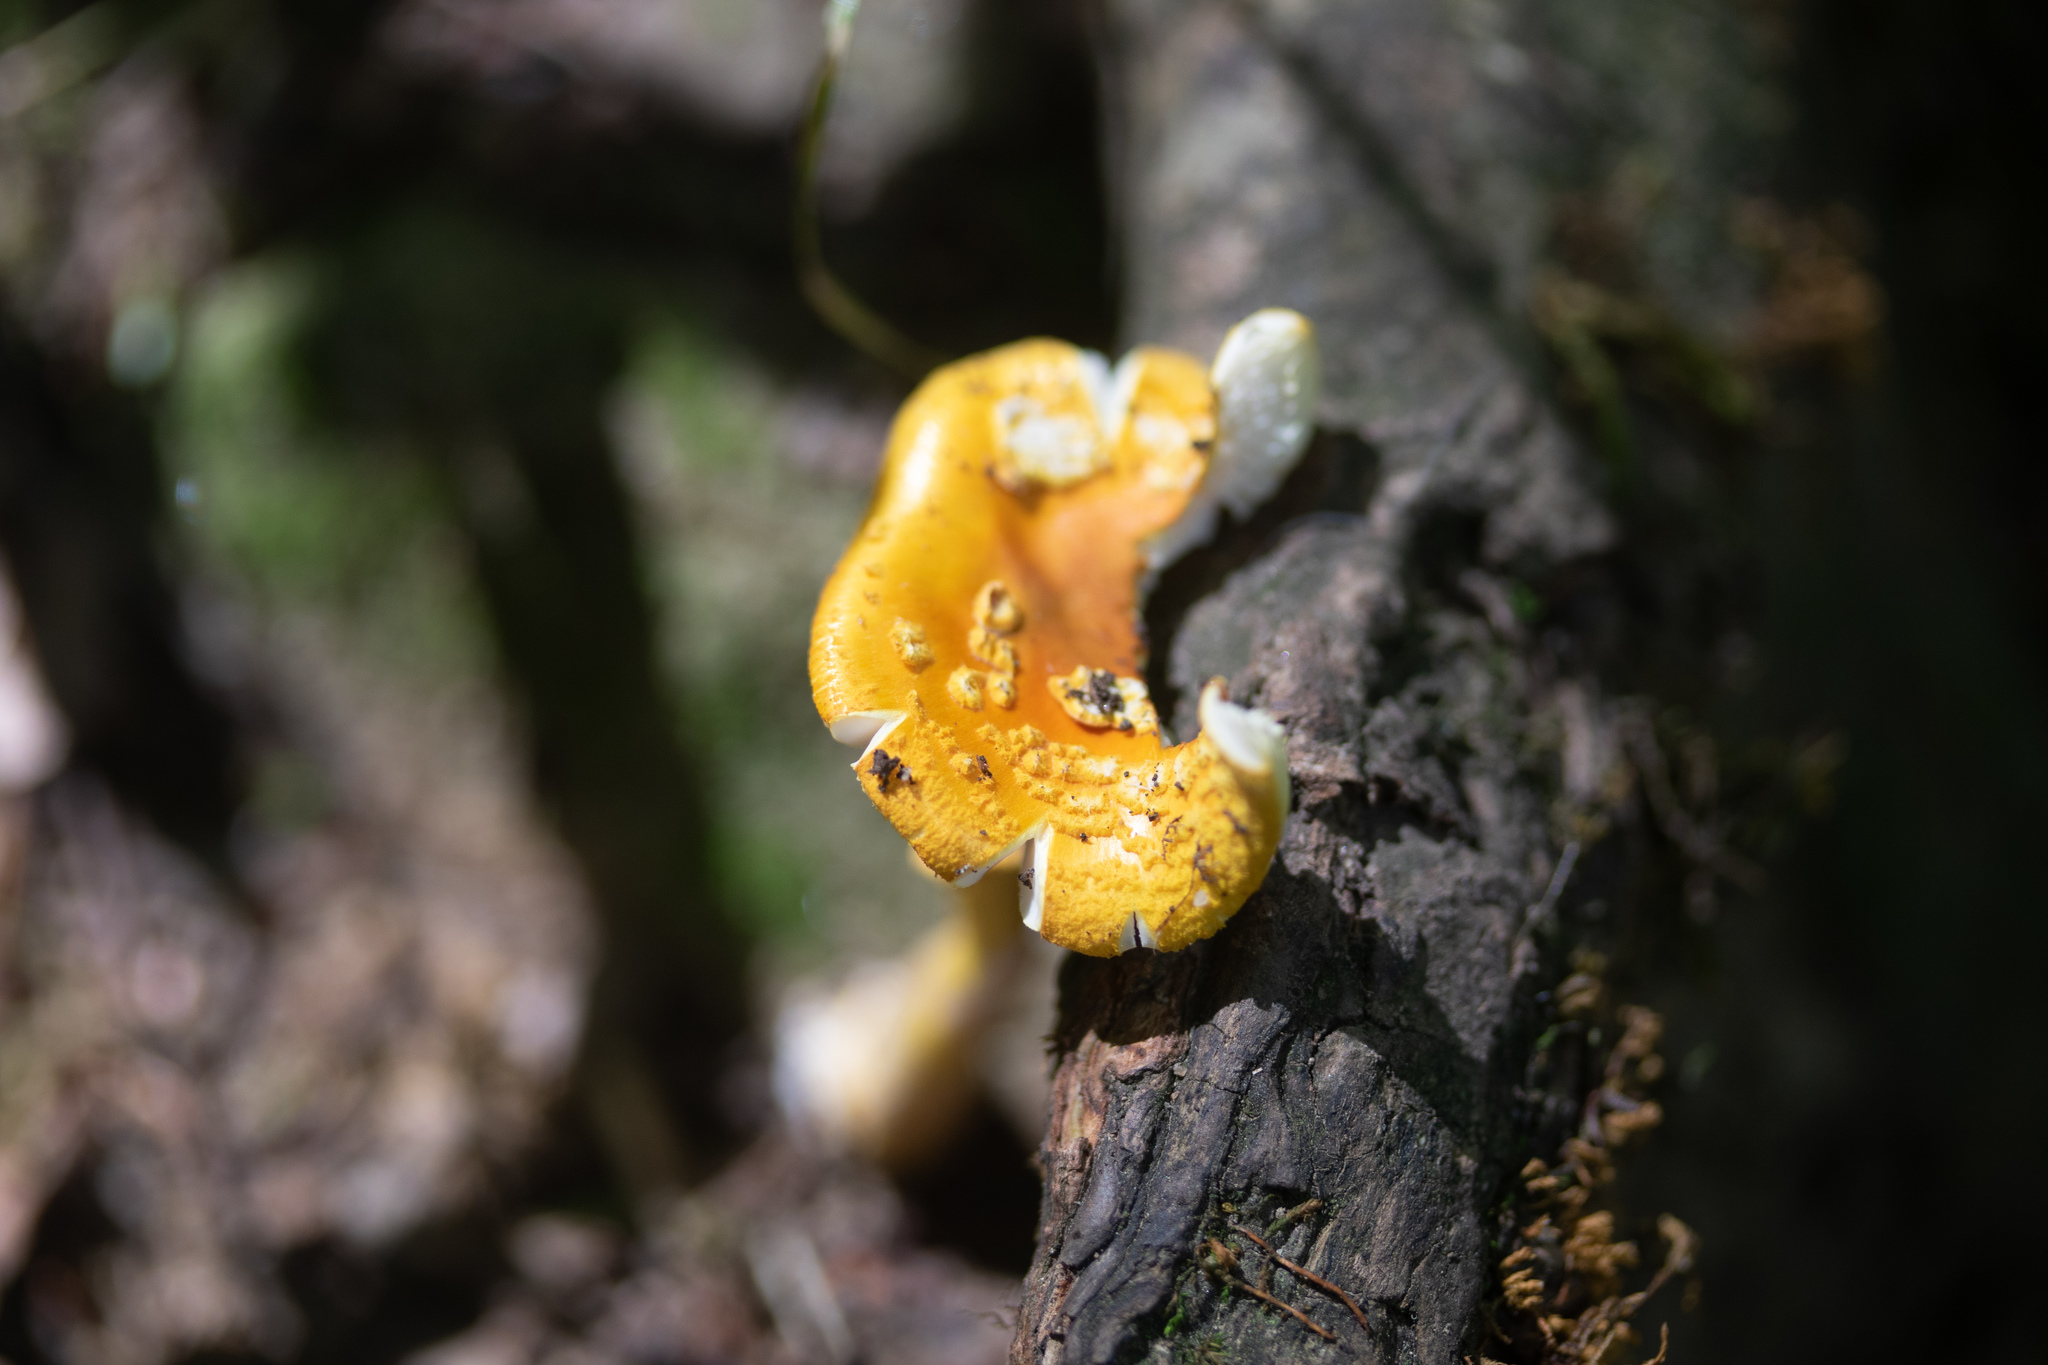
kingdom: Fungi
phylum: Basidiomycota
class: Agaricomycetes
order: Agaricales
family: Amanitaceae
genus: Amanita
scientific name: Amanita flavoconia
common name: Yellow patches
